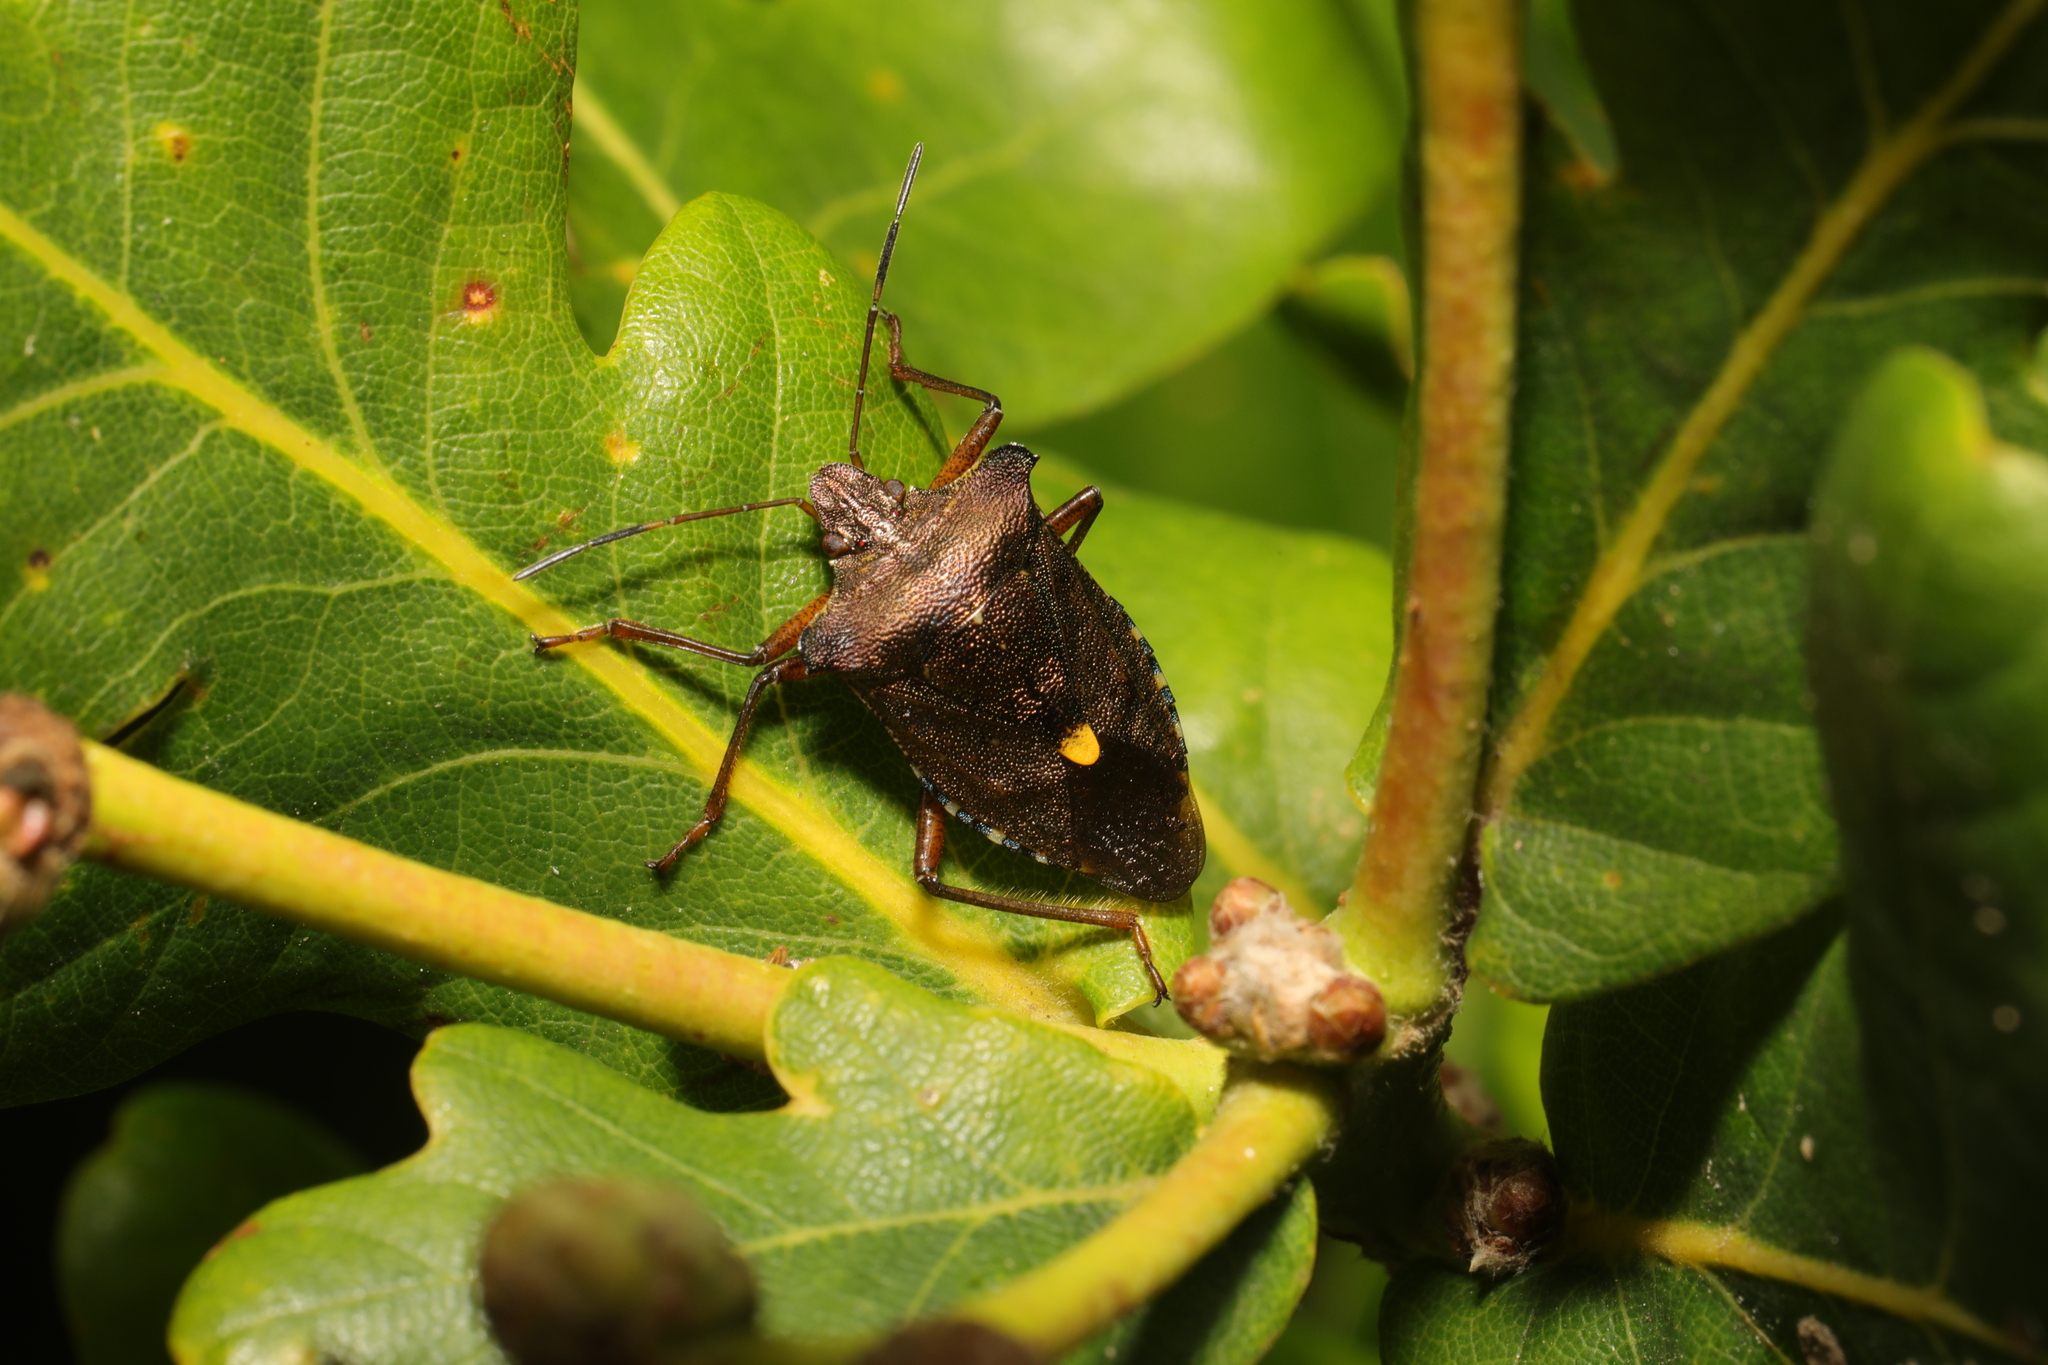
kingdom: Animalia
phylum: Arthropoda
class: Insecta
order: Hemiptera
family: Pentatomidae
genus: Pentatoma
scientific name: Pentatoma rufipes
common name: Forest bug
